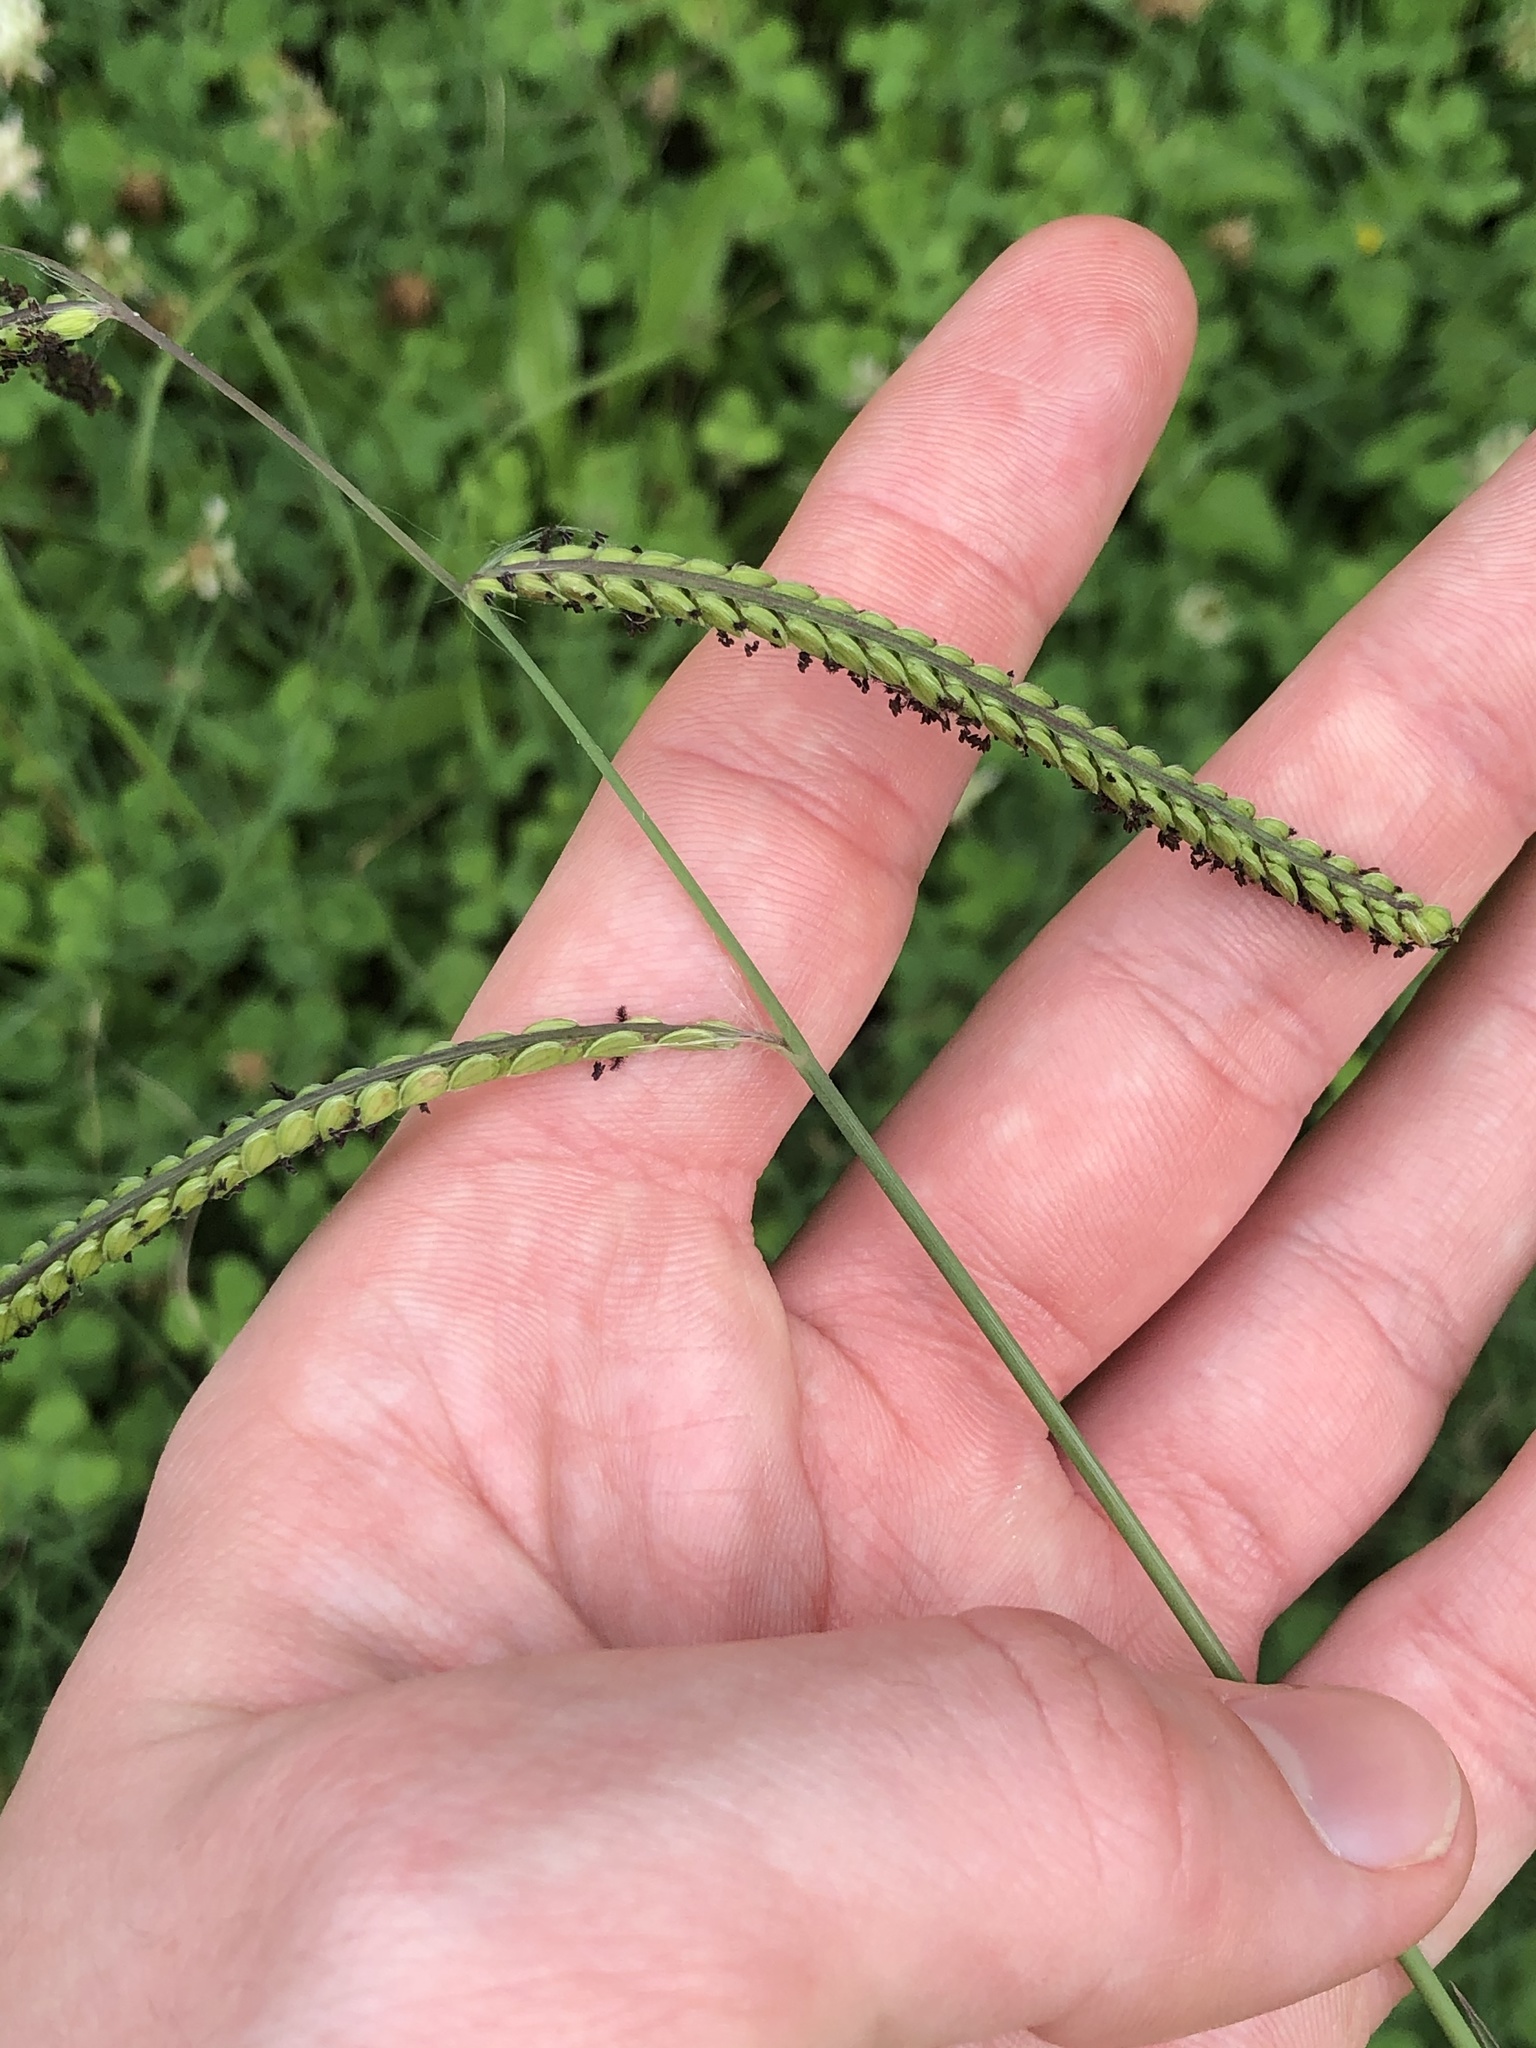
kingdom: Plantae
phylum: Tracheophyta
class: Liliopsida
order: Poales
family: Poaceae
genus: Paspalum
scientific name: Paspalum dilatatum
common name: Dallisgrass
